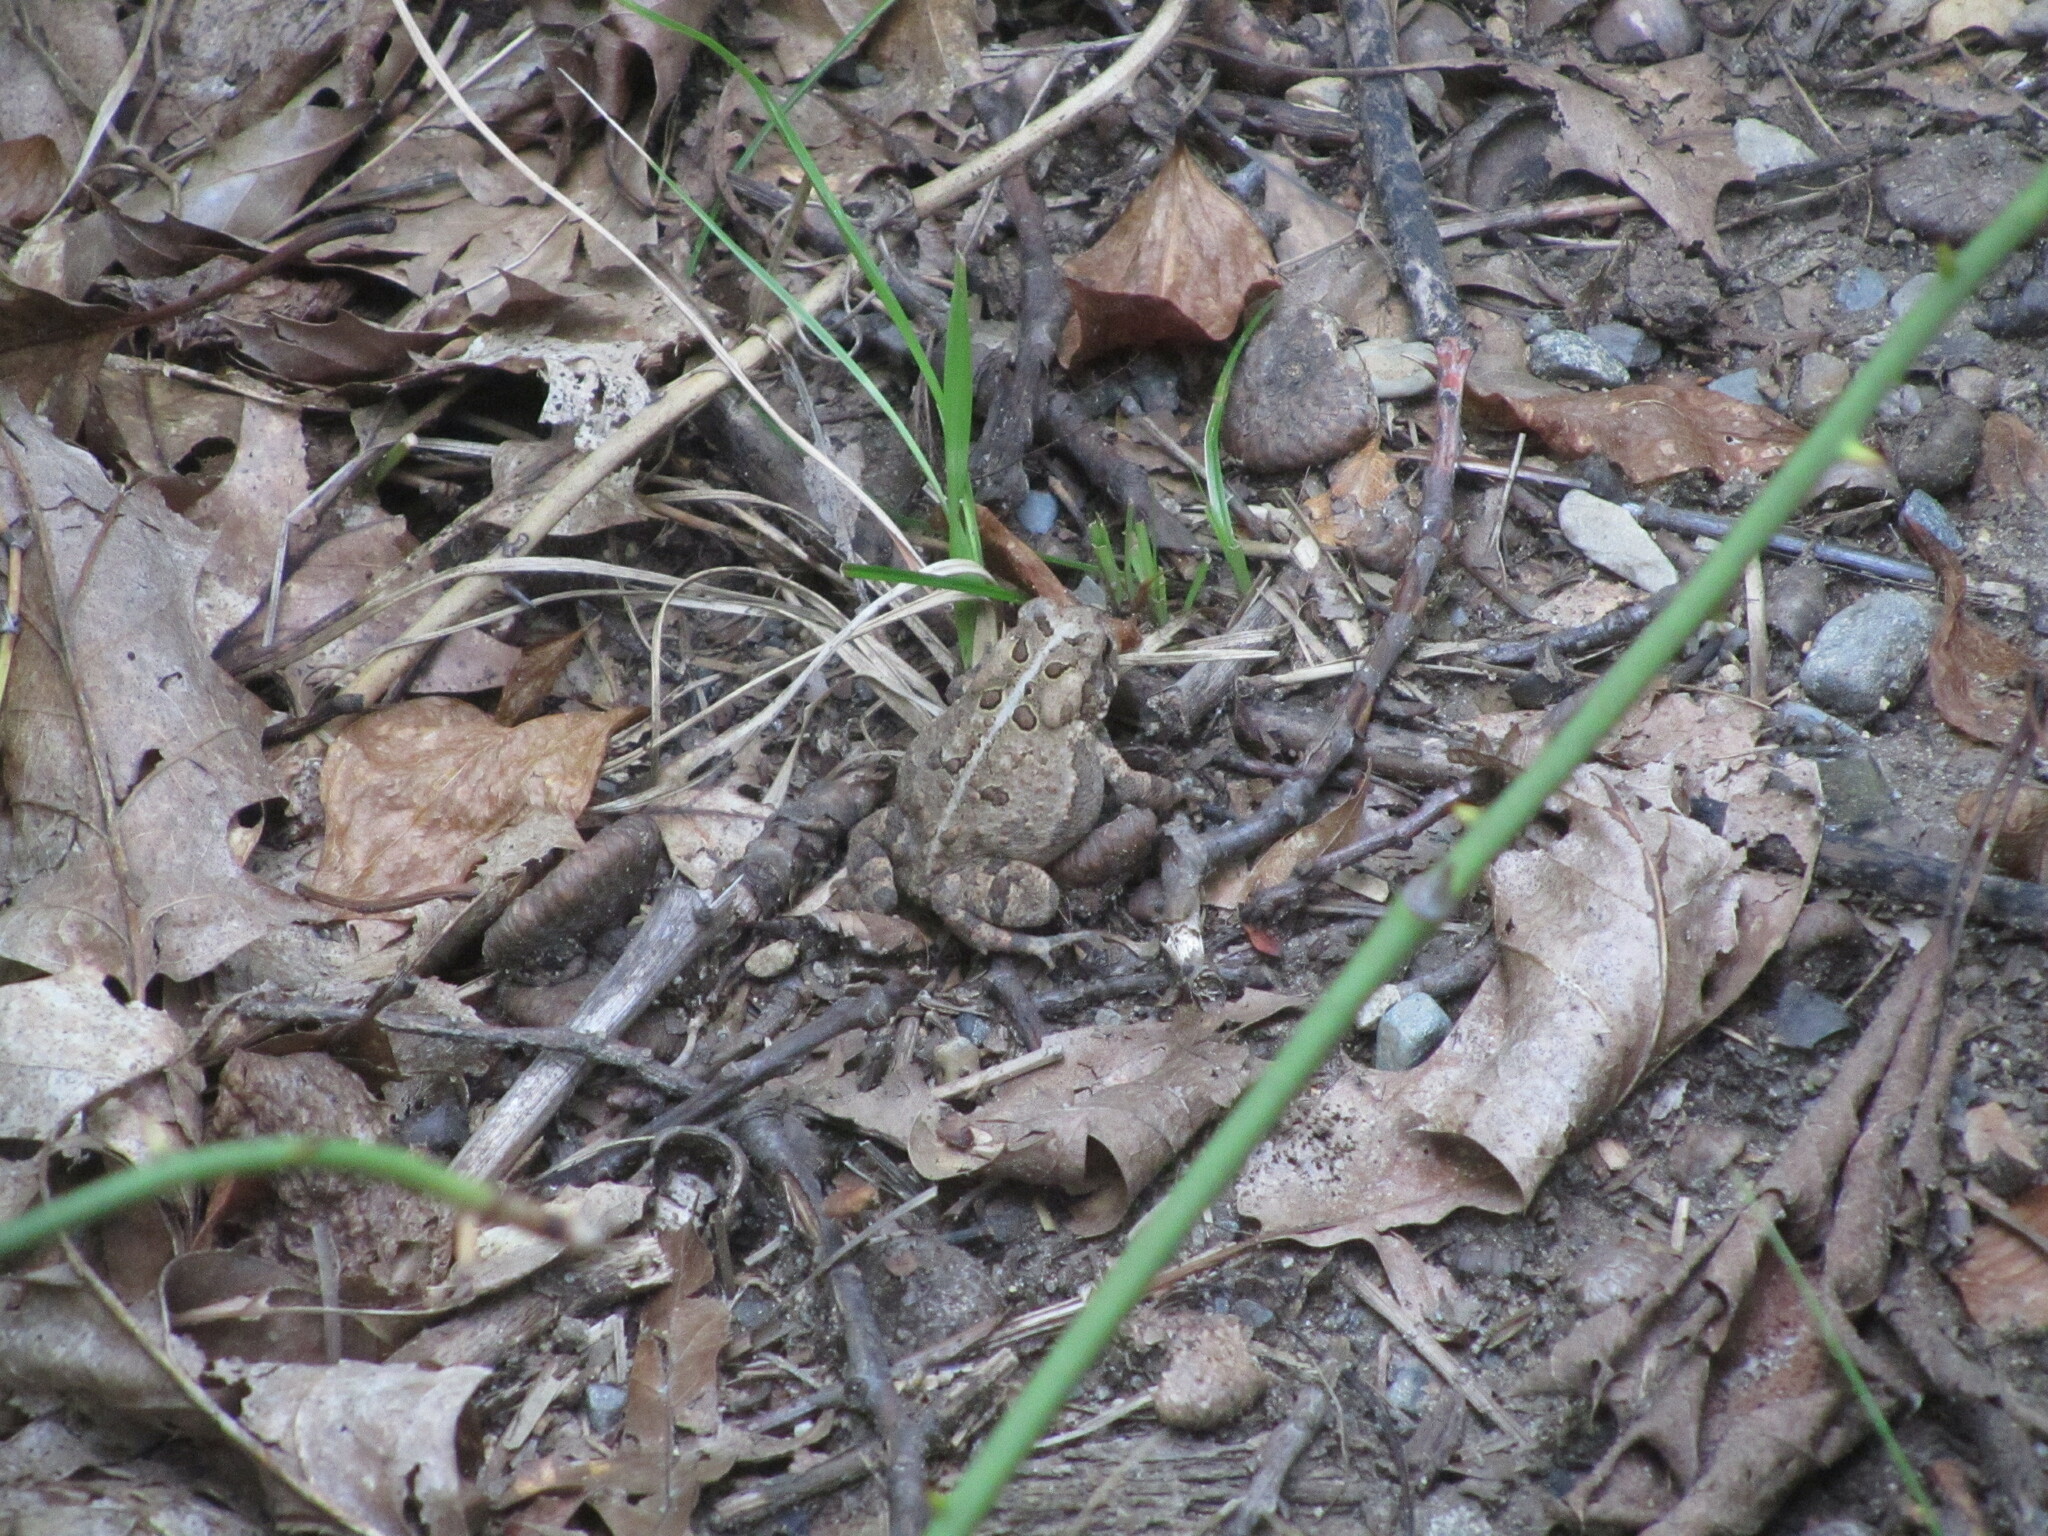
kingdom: Animalia
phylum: Chordata
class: Amphibia
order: Anura
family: Bufonidae
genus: Anaxyrus
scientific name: Anaxyrus americanus
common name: American toad
